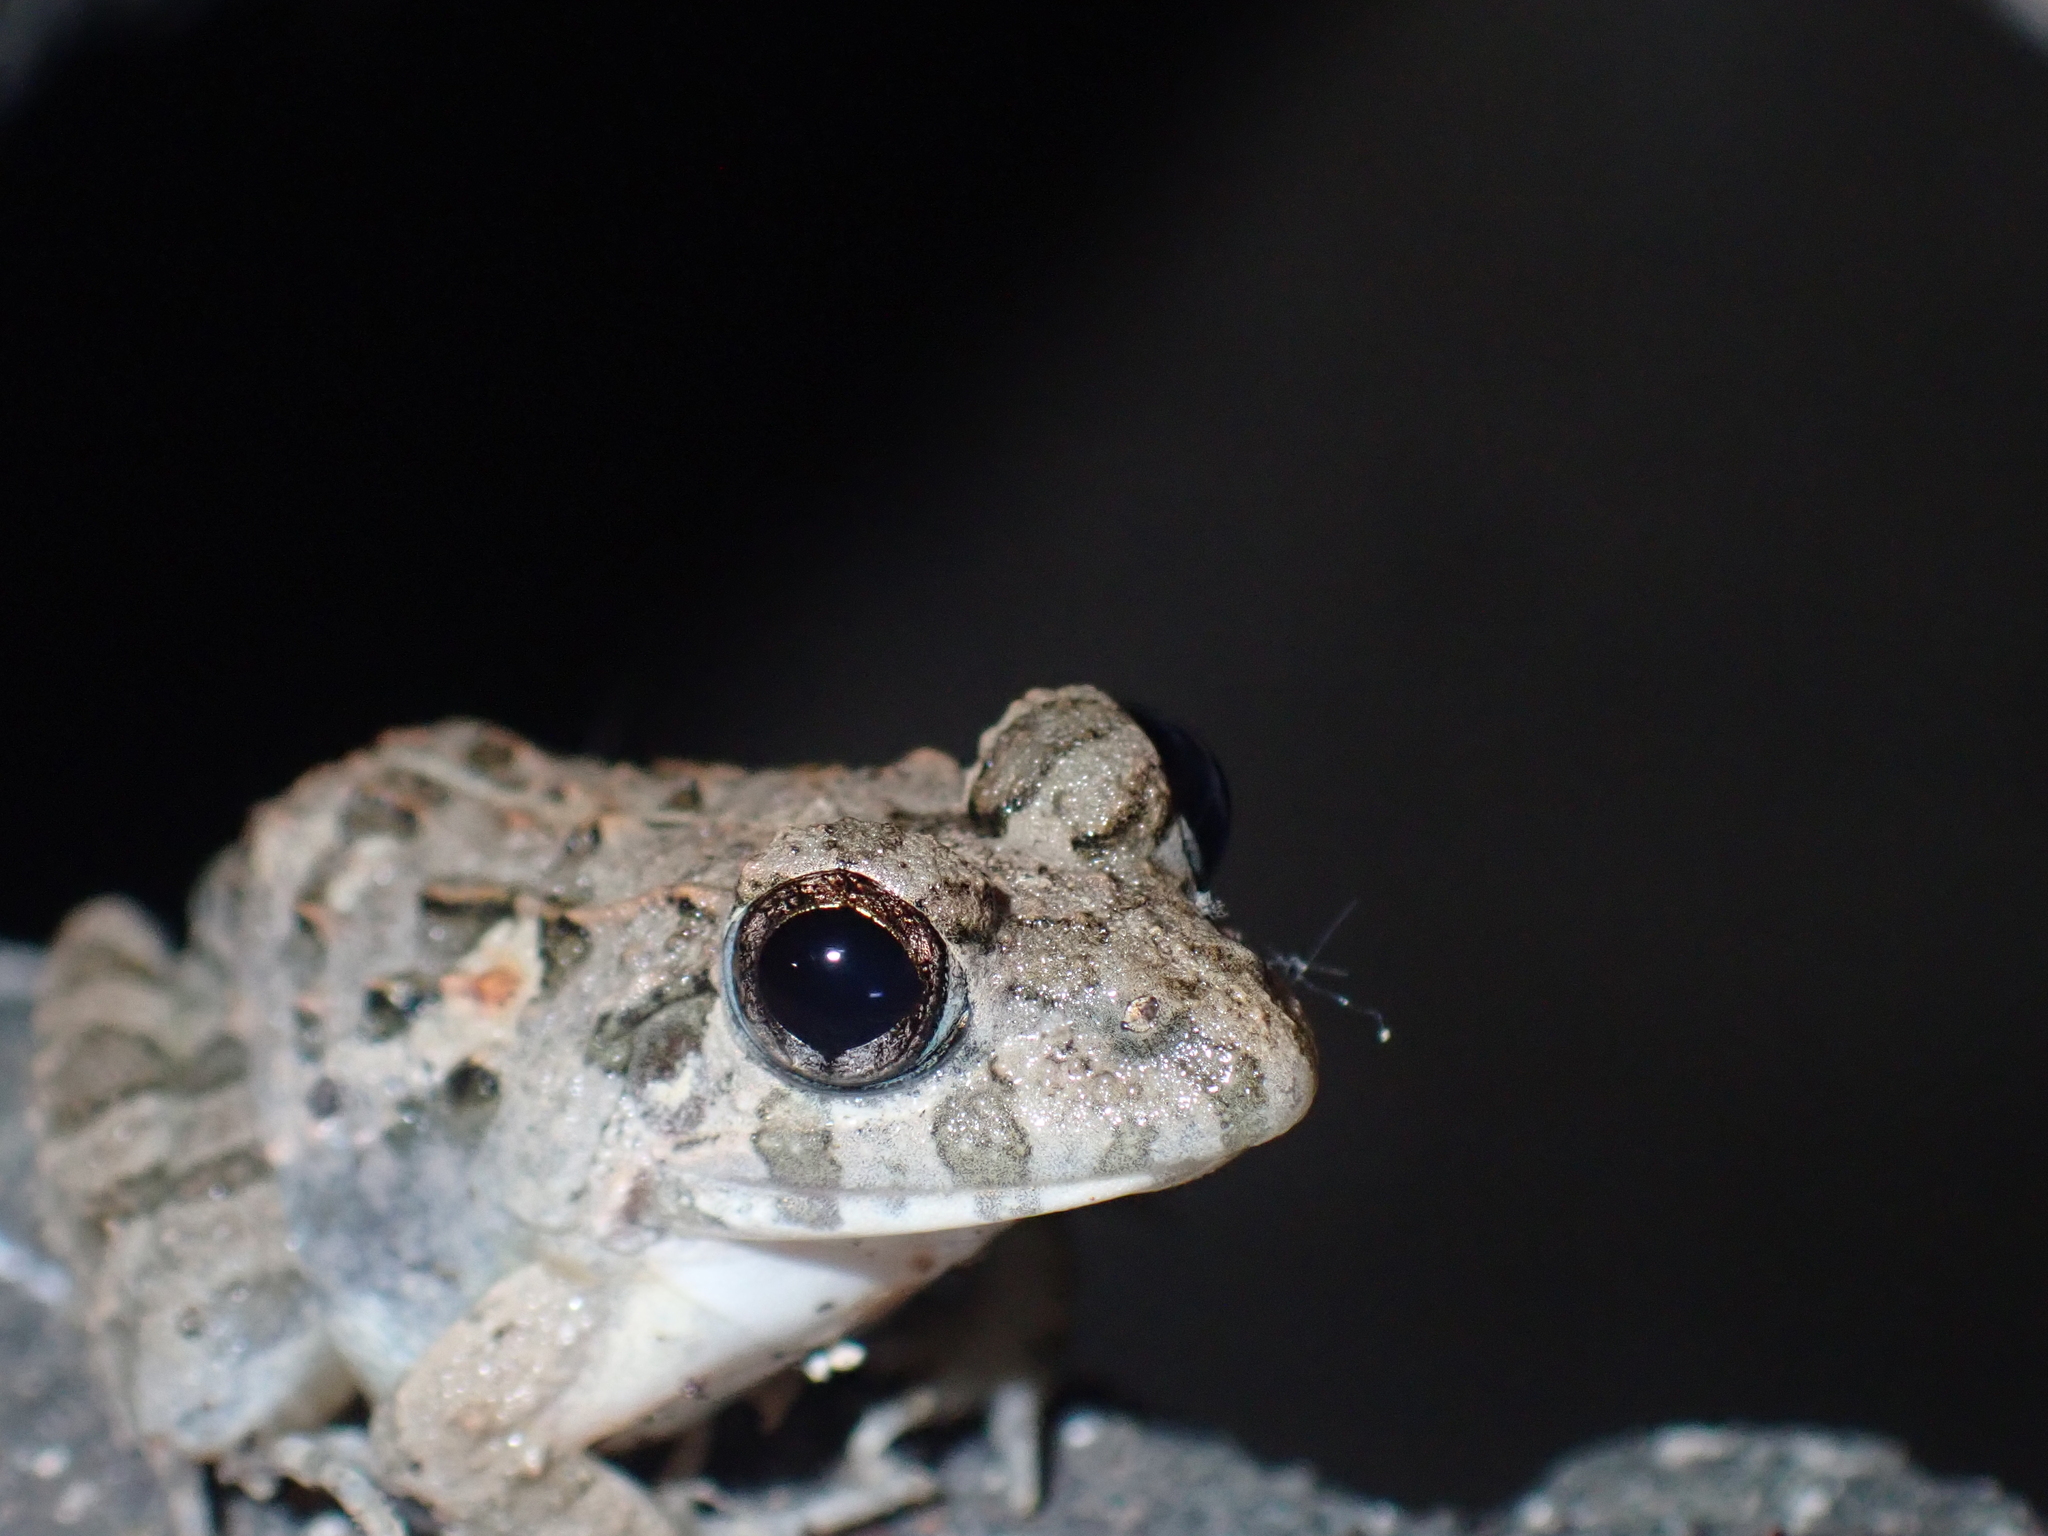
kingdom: Animalia
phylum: Chordata
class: Amphibia
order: Anura
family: Dicroglossidae
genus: Fejervarya
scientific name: Fejervarya limnocharis
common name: Asian grass frog/common pond frog/field frog/grass frog/indian rice frog
